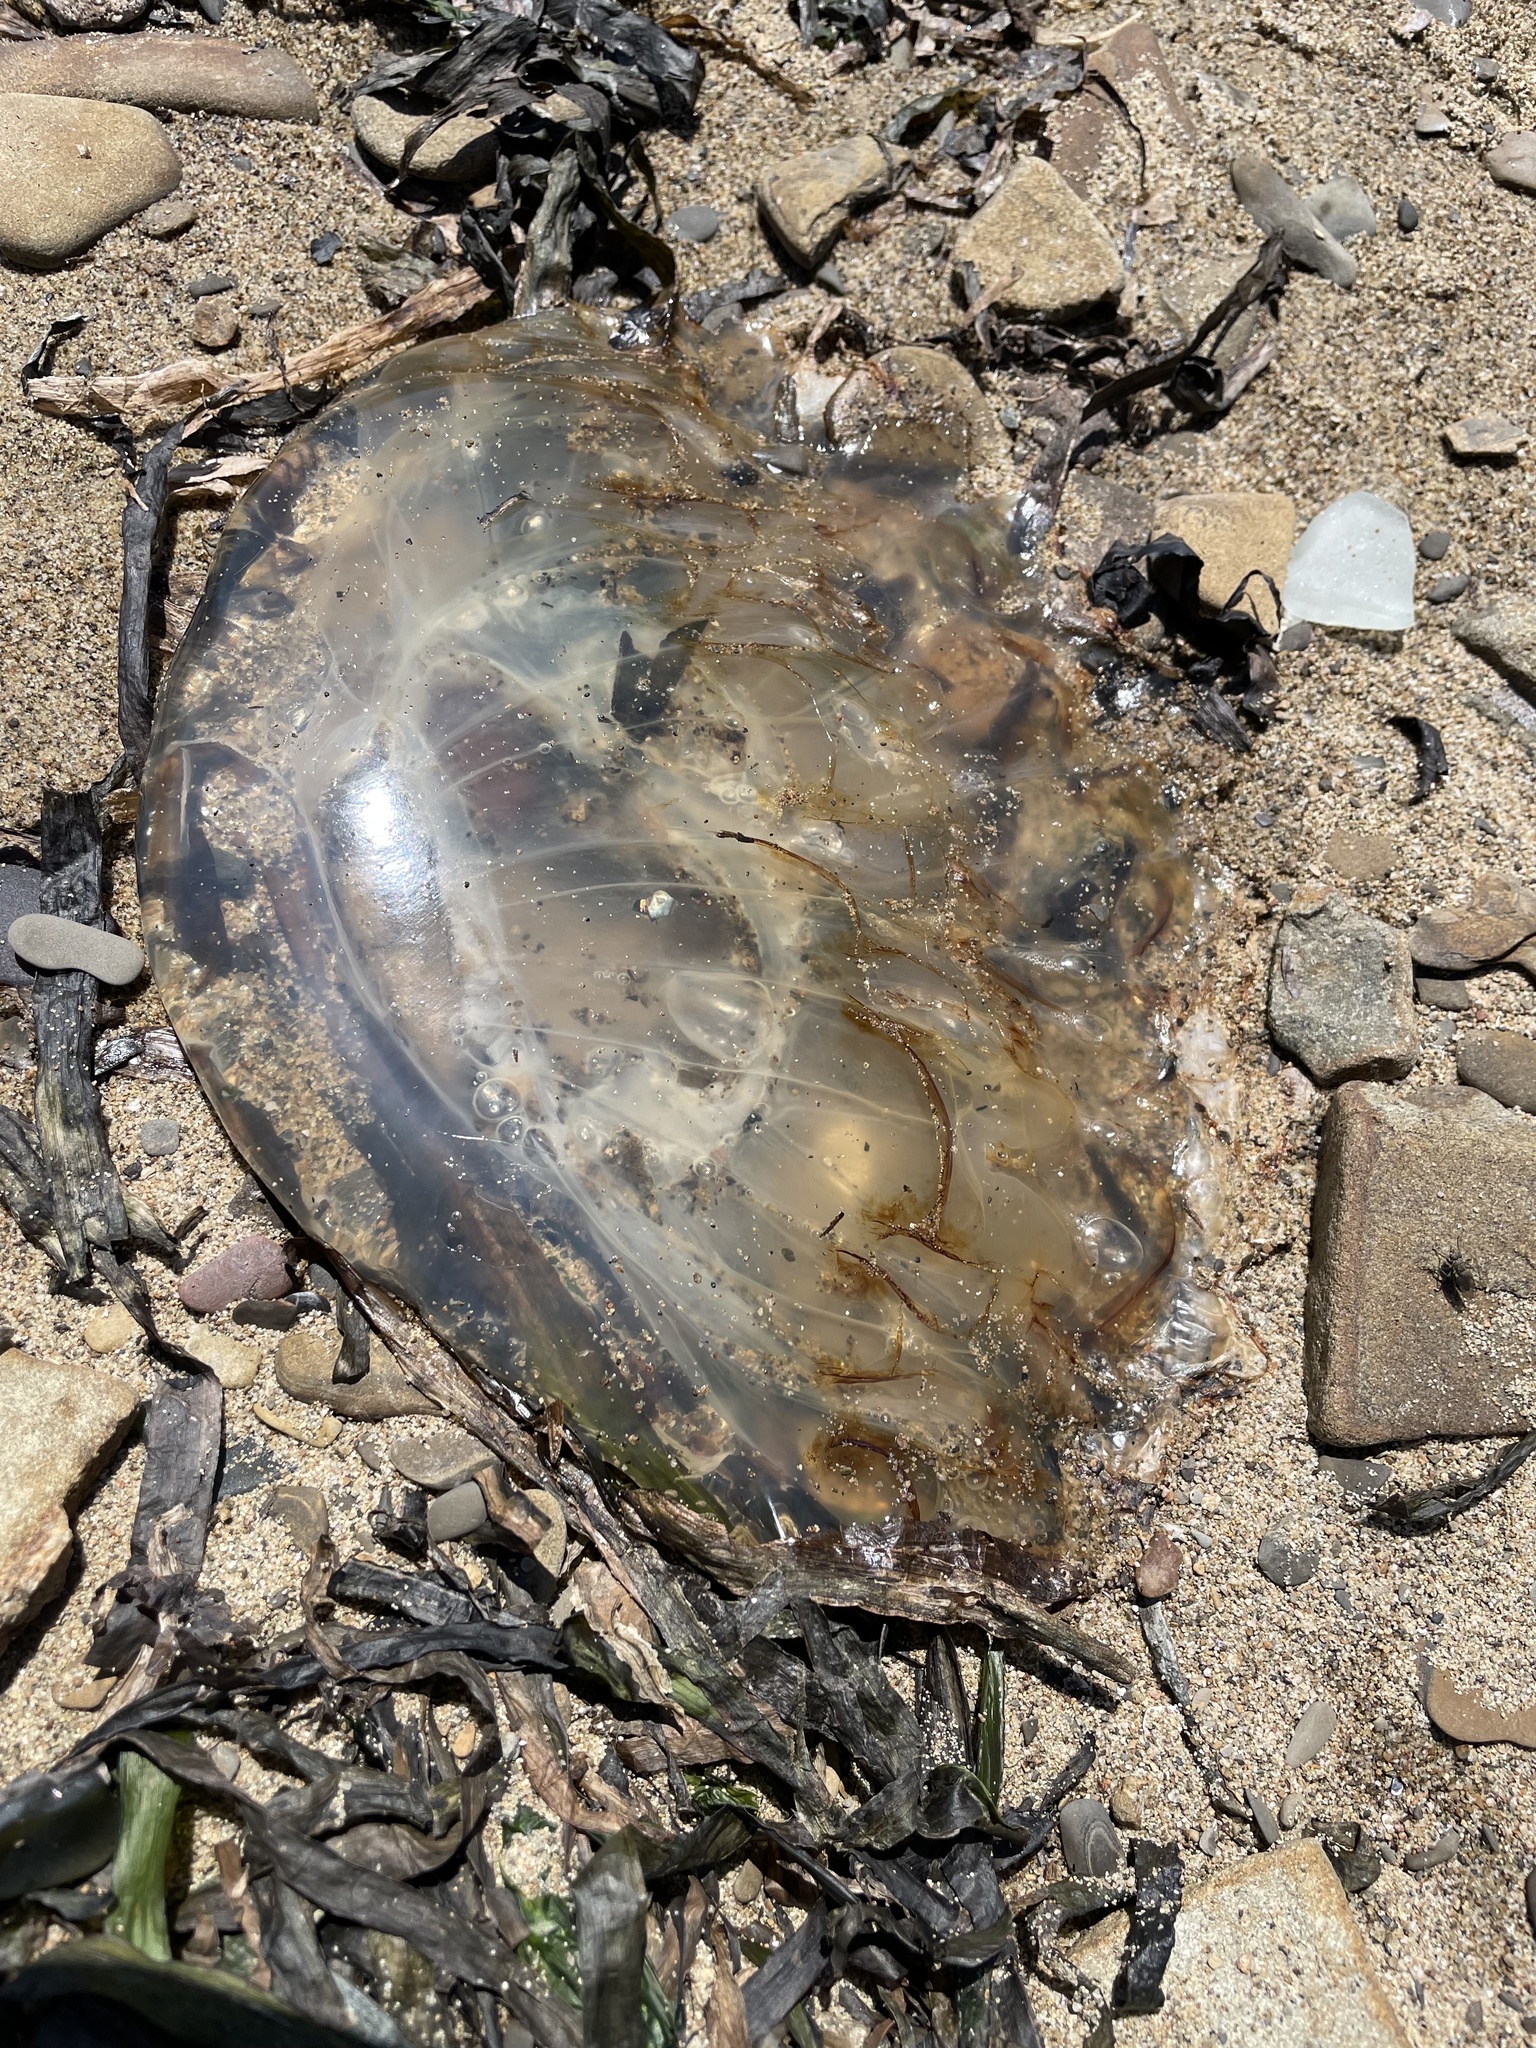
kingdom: Animalia
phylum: Cnidaria
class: Scyphozoa
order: Semaeostomeae
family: Pelagiidae
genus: Chrysaora
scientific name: Chrysaora fuscescens
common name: Sea nettle
